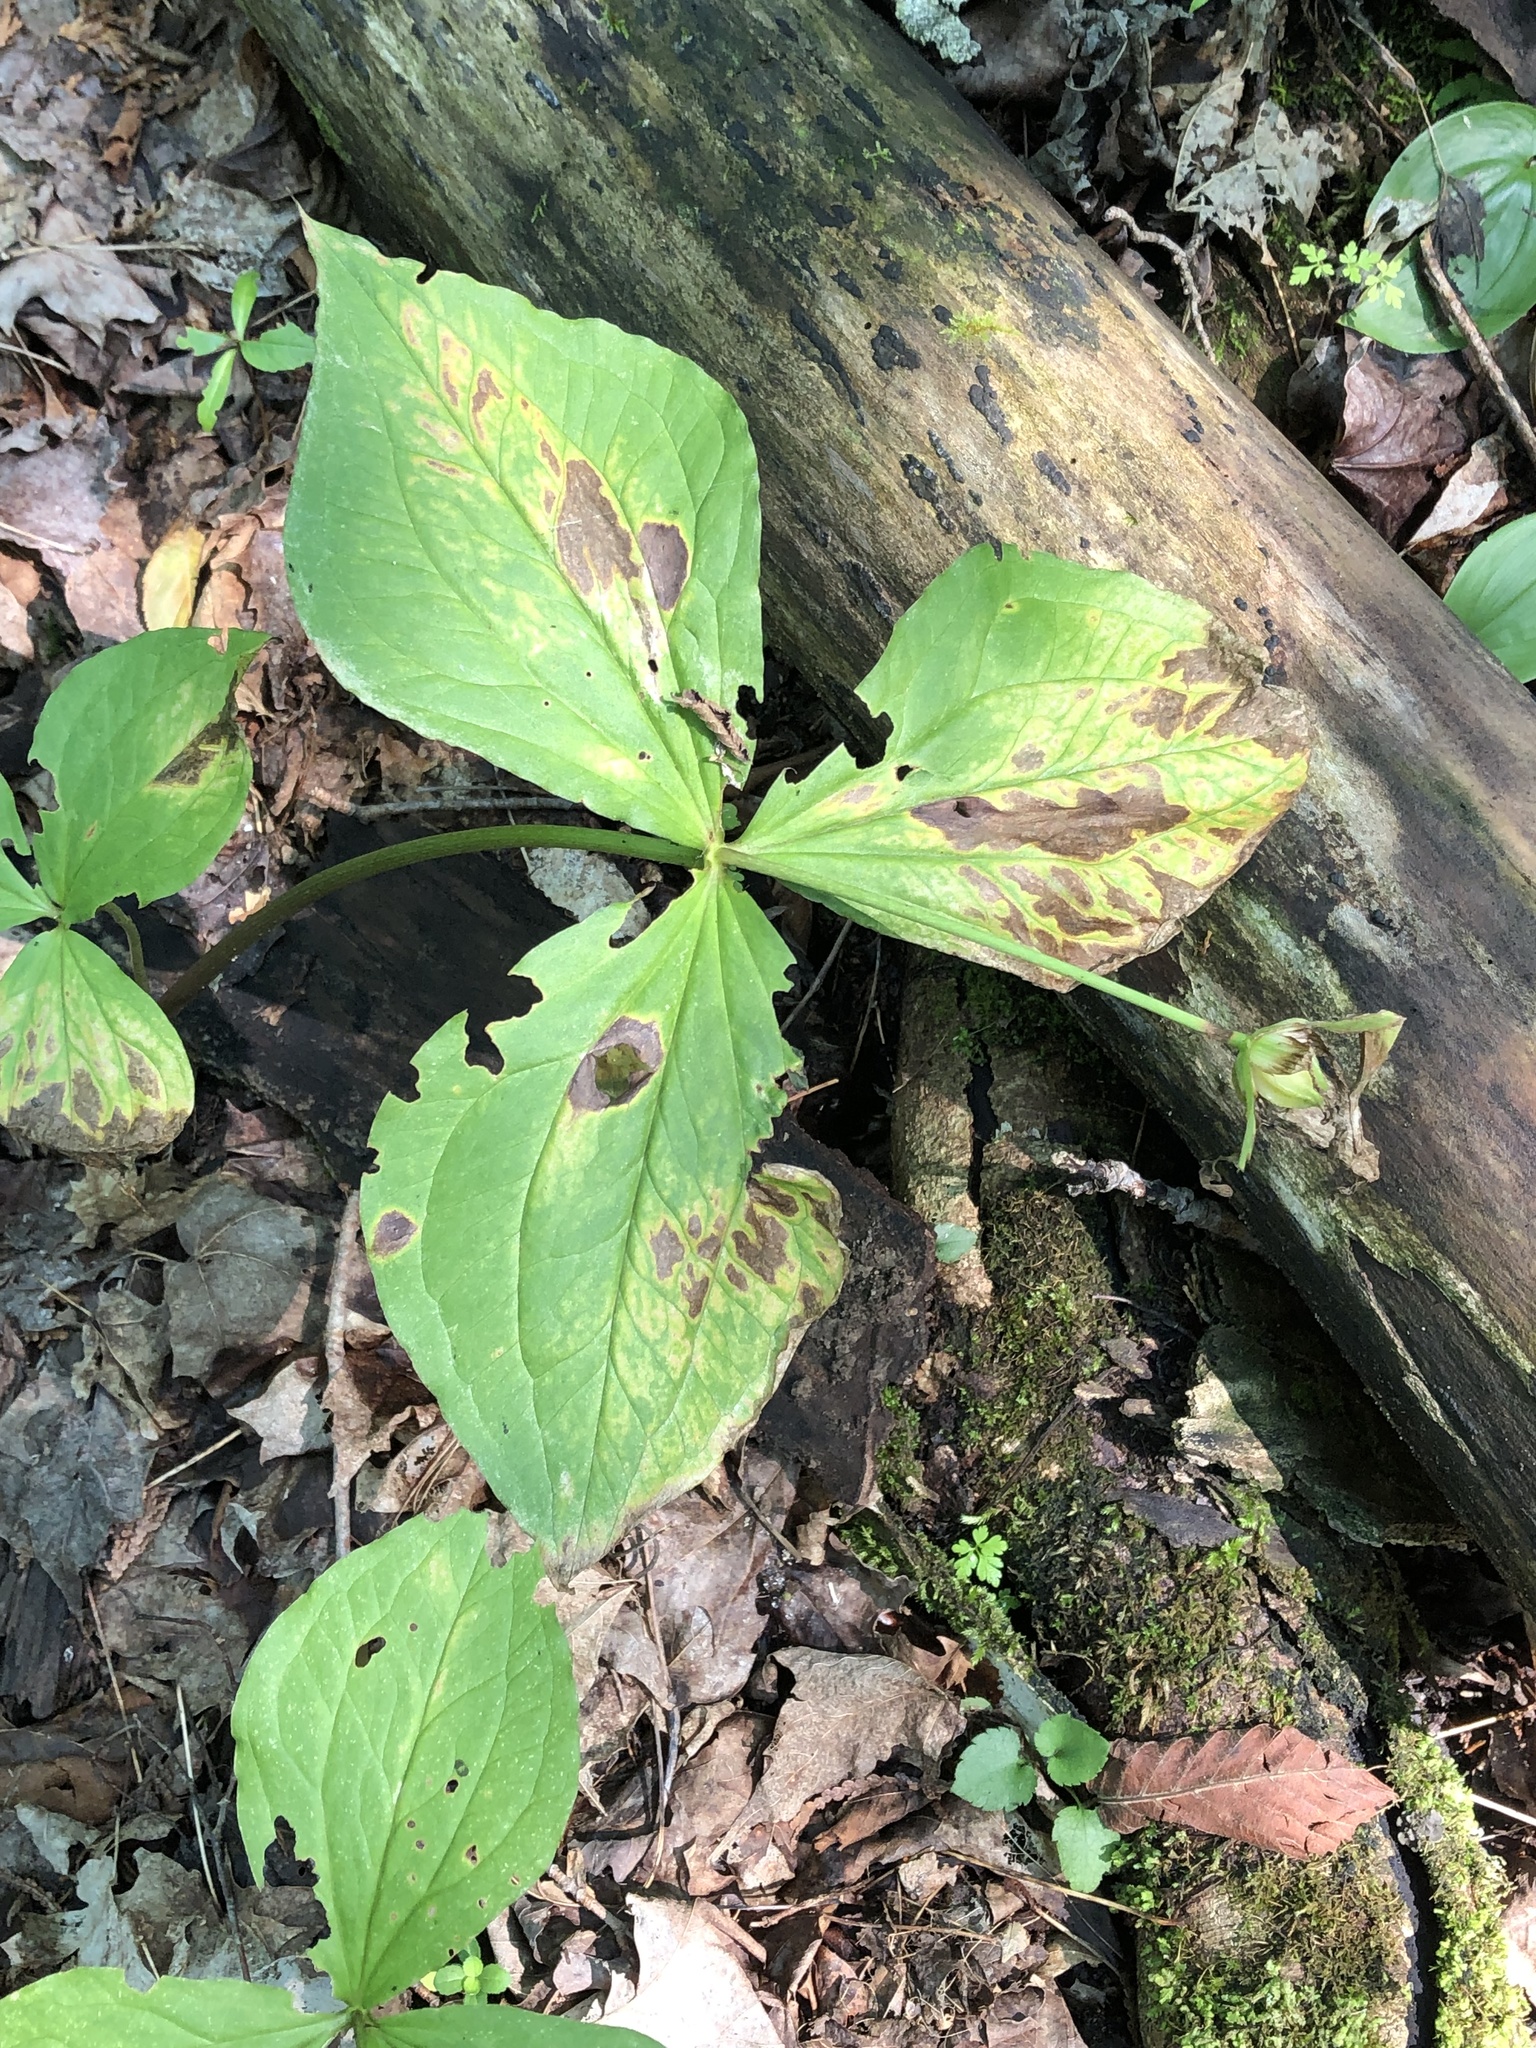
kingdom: Plantae
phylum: Tracheophyta
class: Liliopsida
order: Liliales
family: Melanthiaceae
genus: Trillium
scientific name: Trillium grandiflorum
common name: Great white trillium
